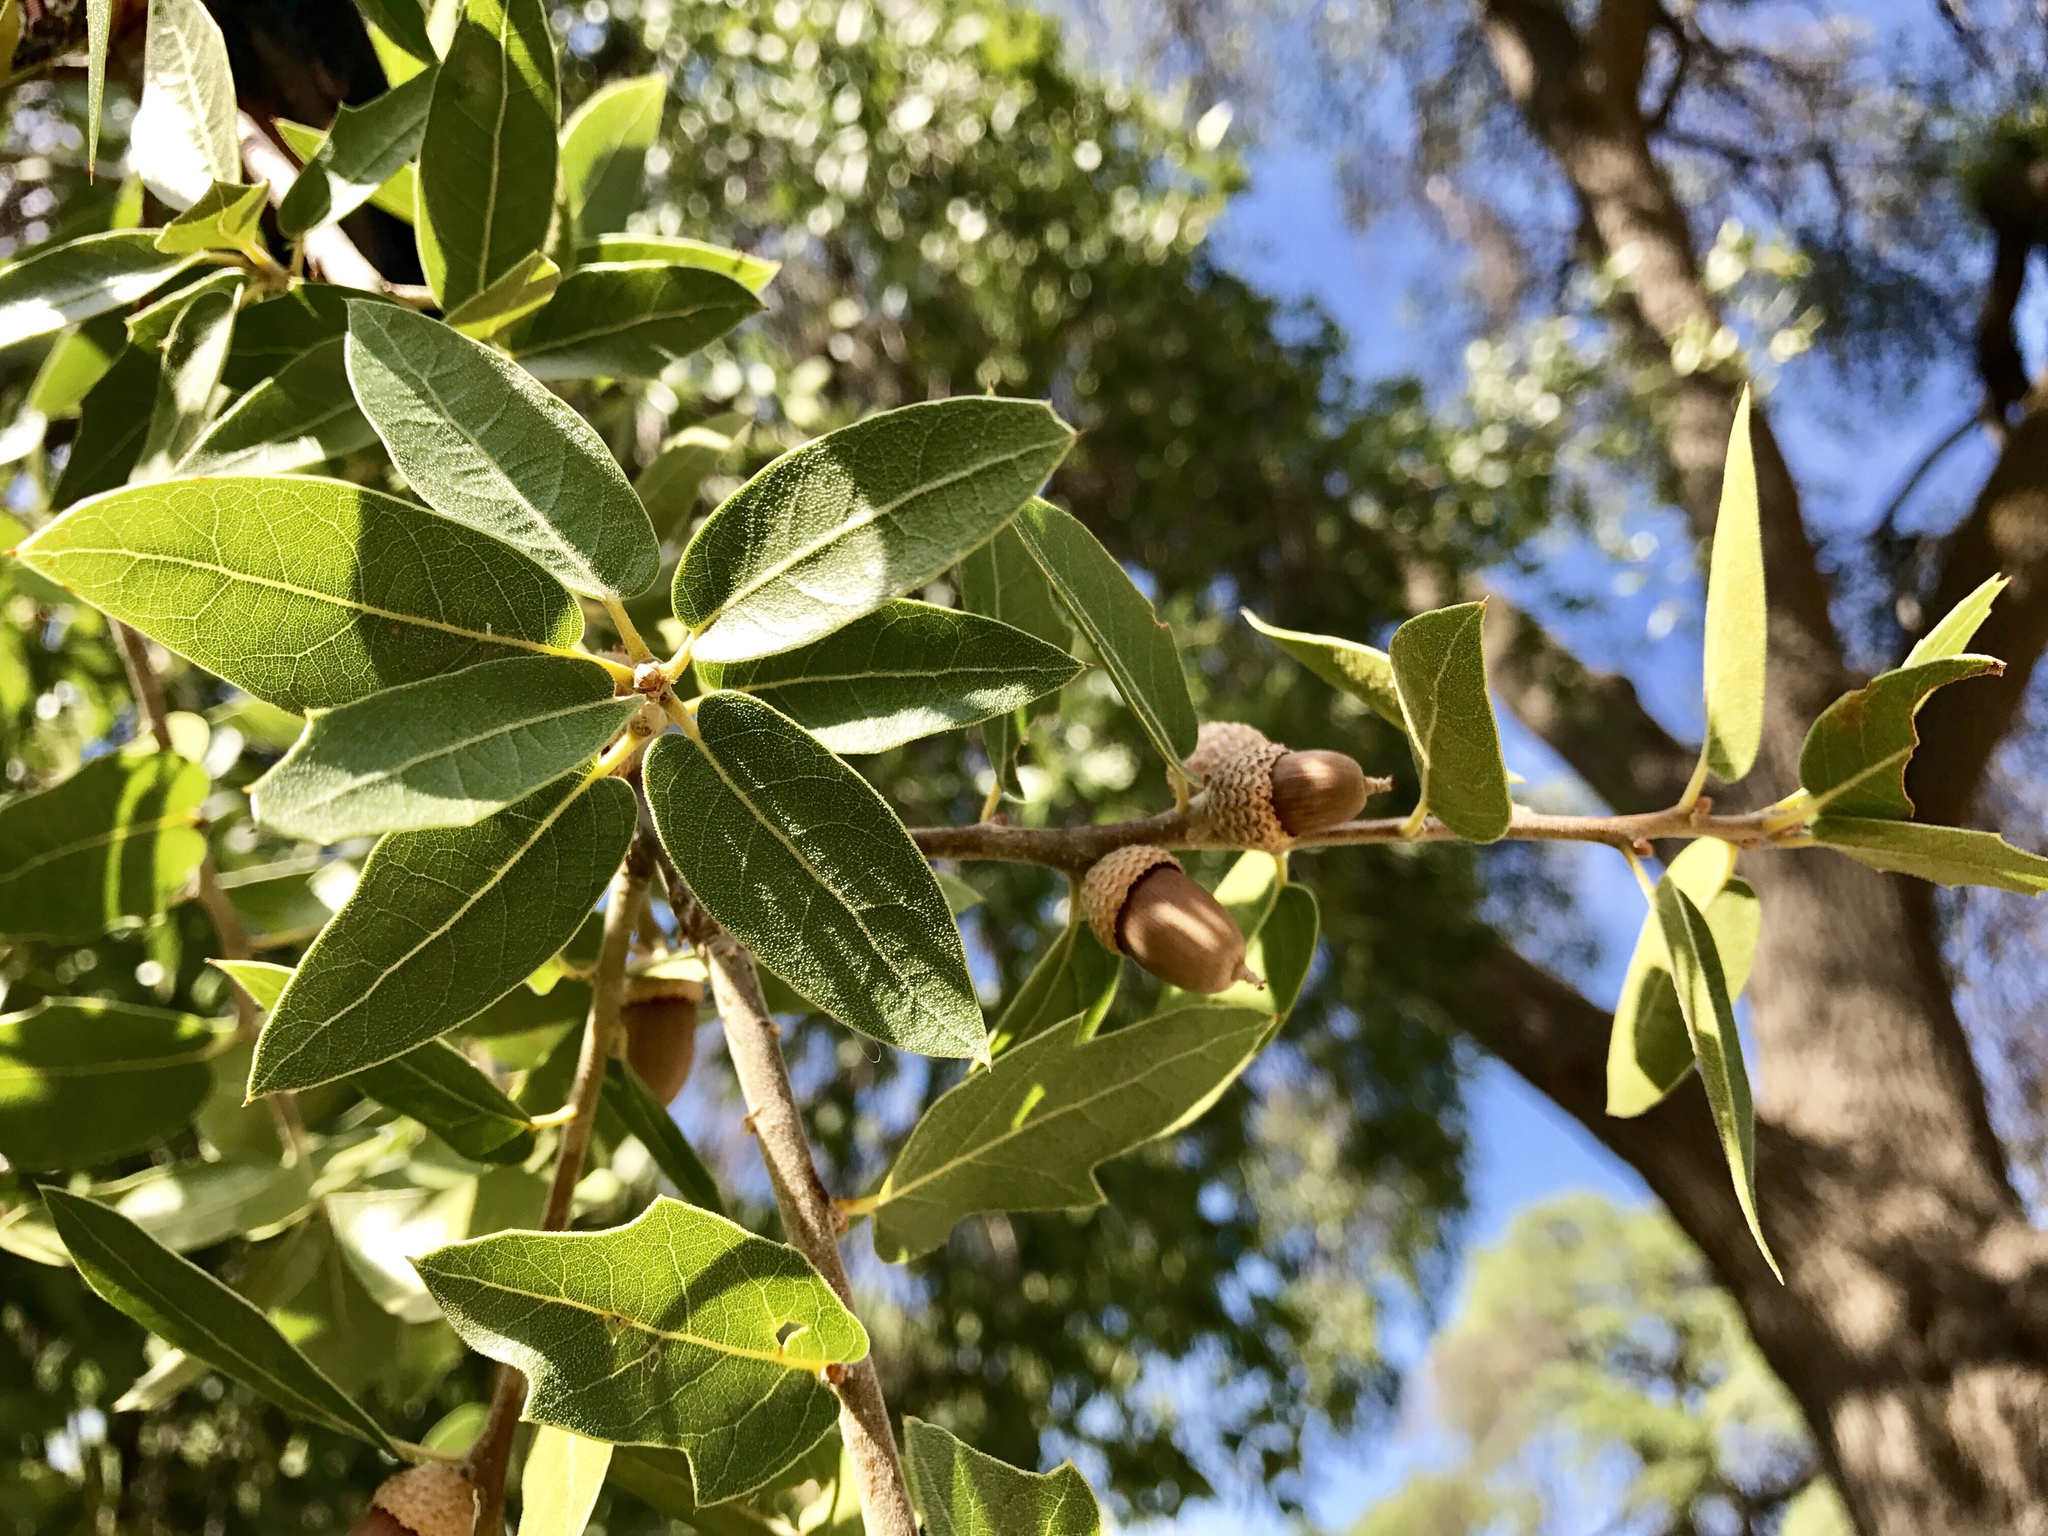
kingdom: Plantae
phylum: Tracheophyta
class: Magnoliopsida
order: Fagales
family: Fagaceae
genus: Quercus
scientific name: Quercus emoryi
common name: Emory oak
